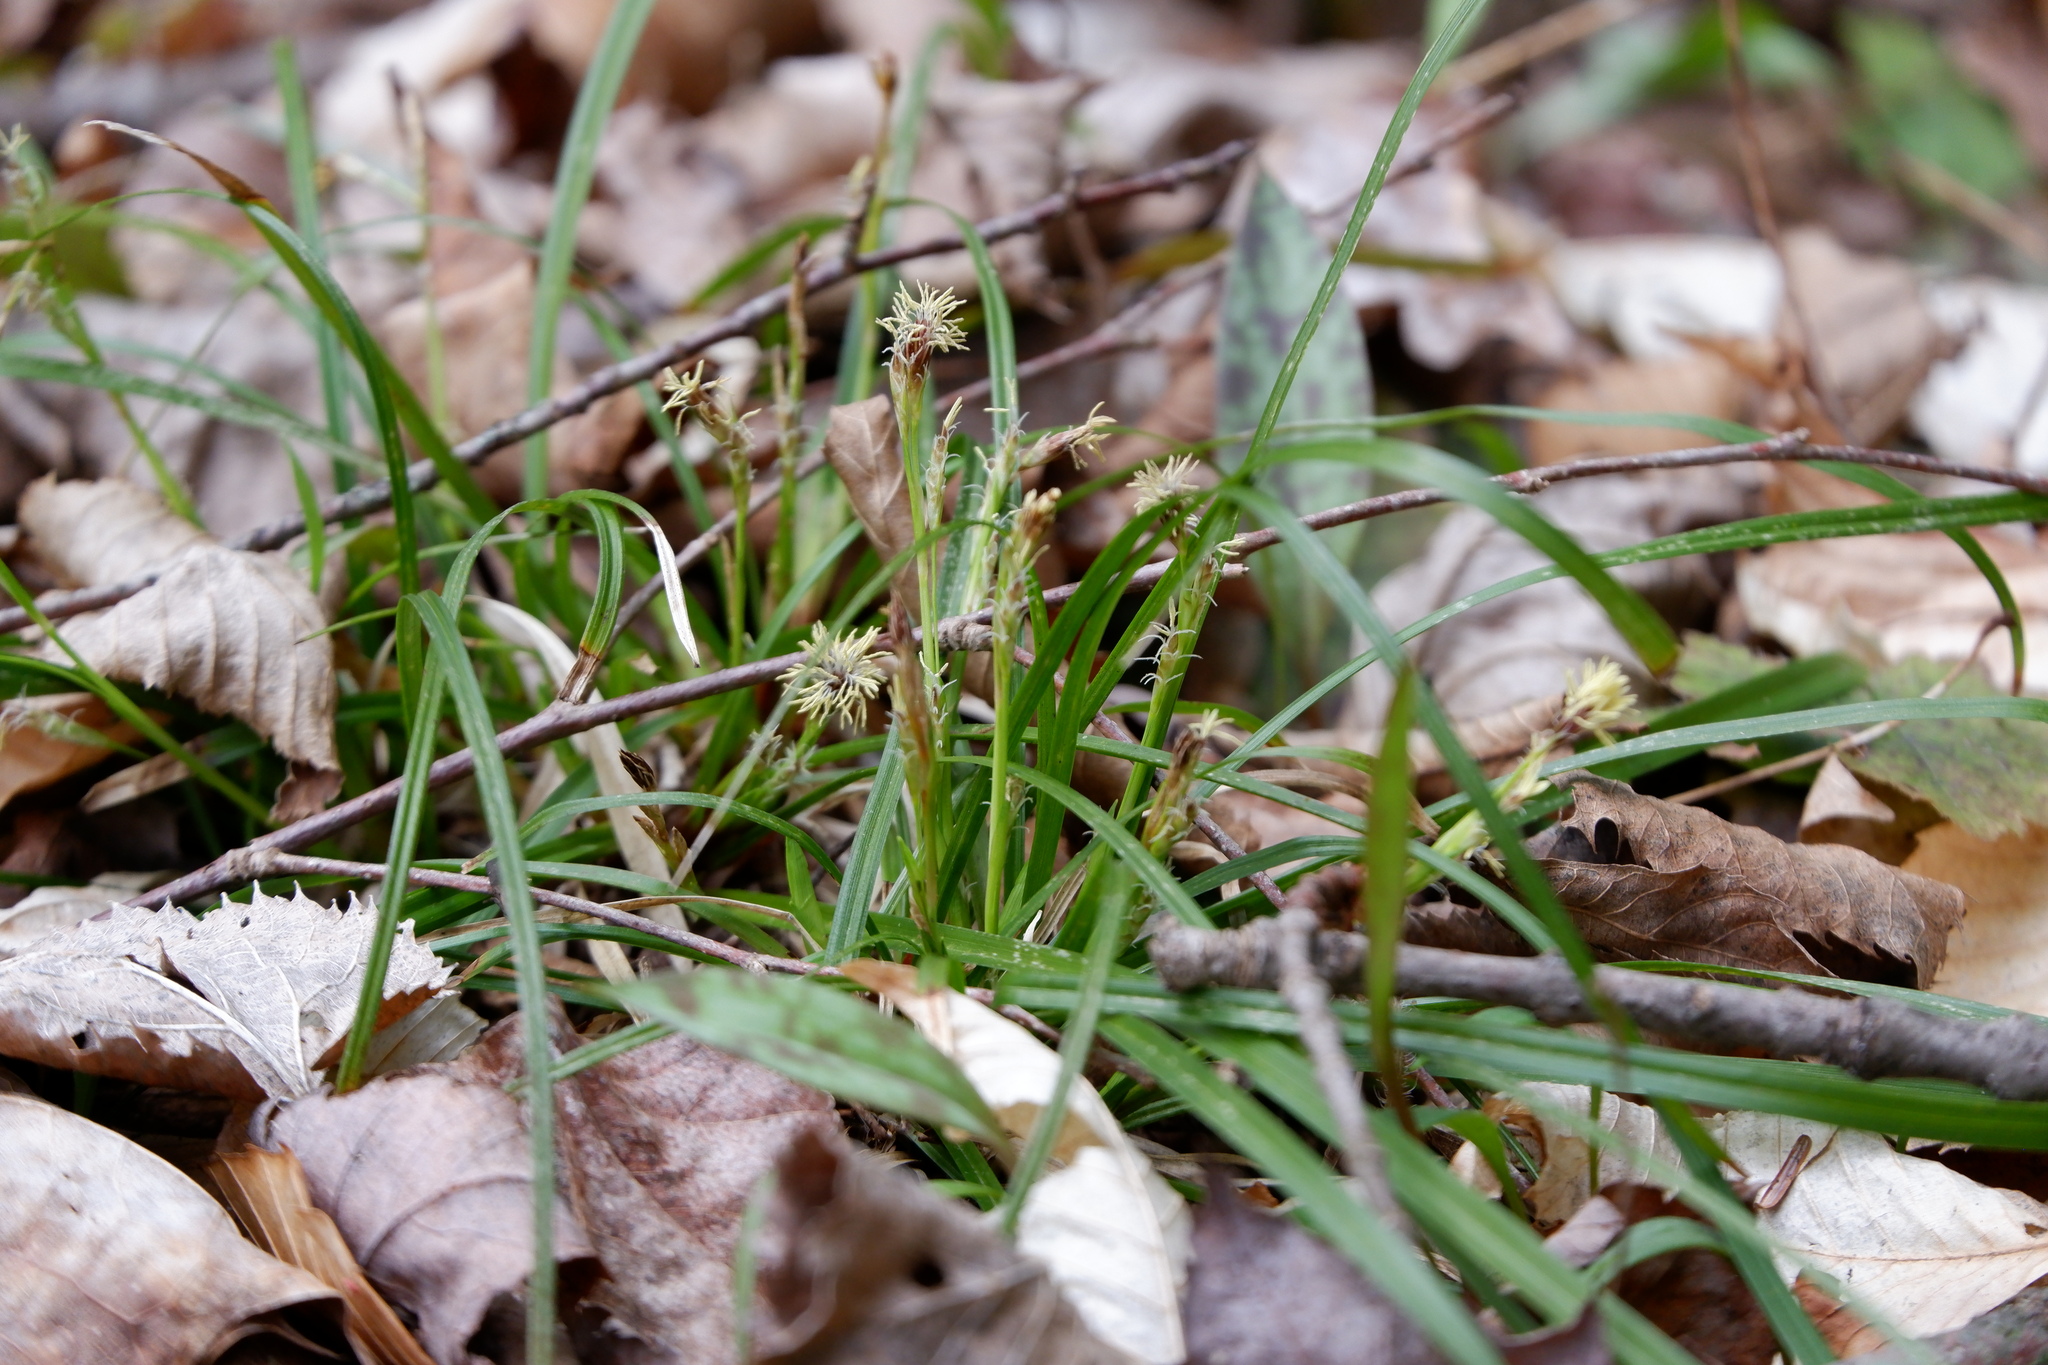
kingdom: Plantae
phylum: Tracheophyta
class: Liliopsida
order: Poales
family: Cyperaceae
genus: Carex
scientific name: Carex pedunculata
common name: Pedunculate sedge
